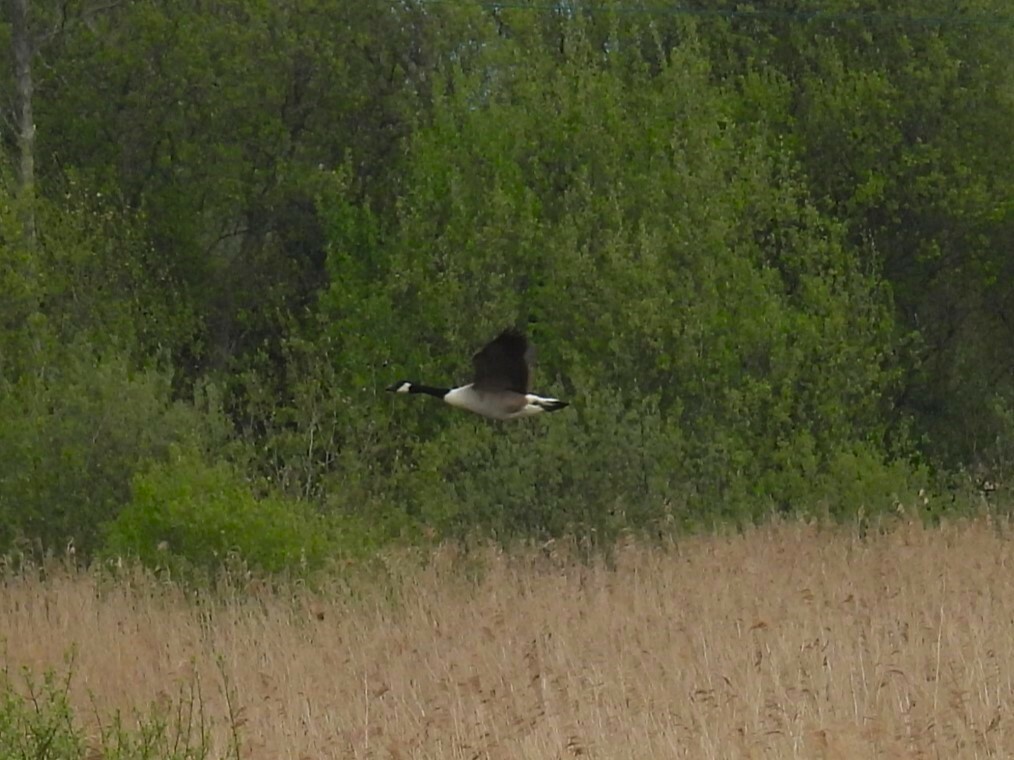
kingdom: Animalia
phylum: Chordata
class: Aves
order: Anseriformes
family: Anatidae
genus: Branta
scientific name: Branta canadensis
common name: Canada goose
